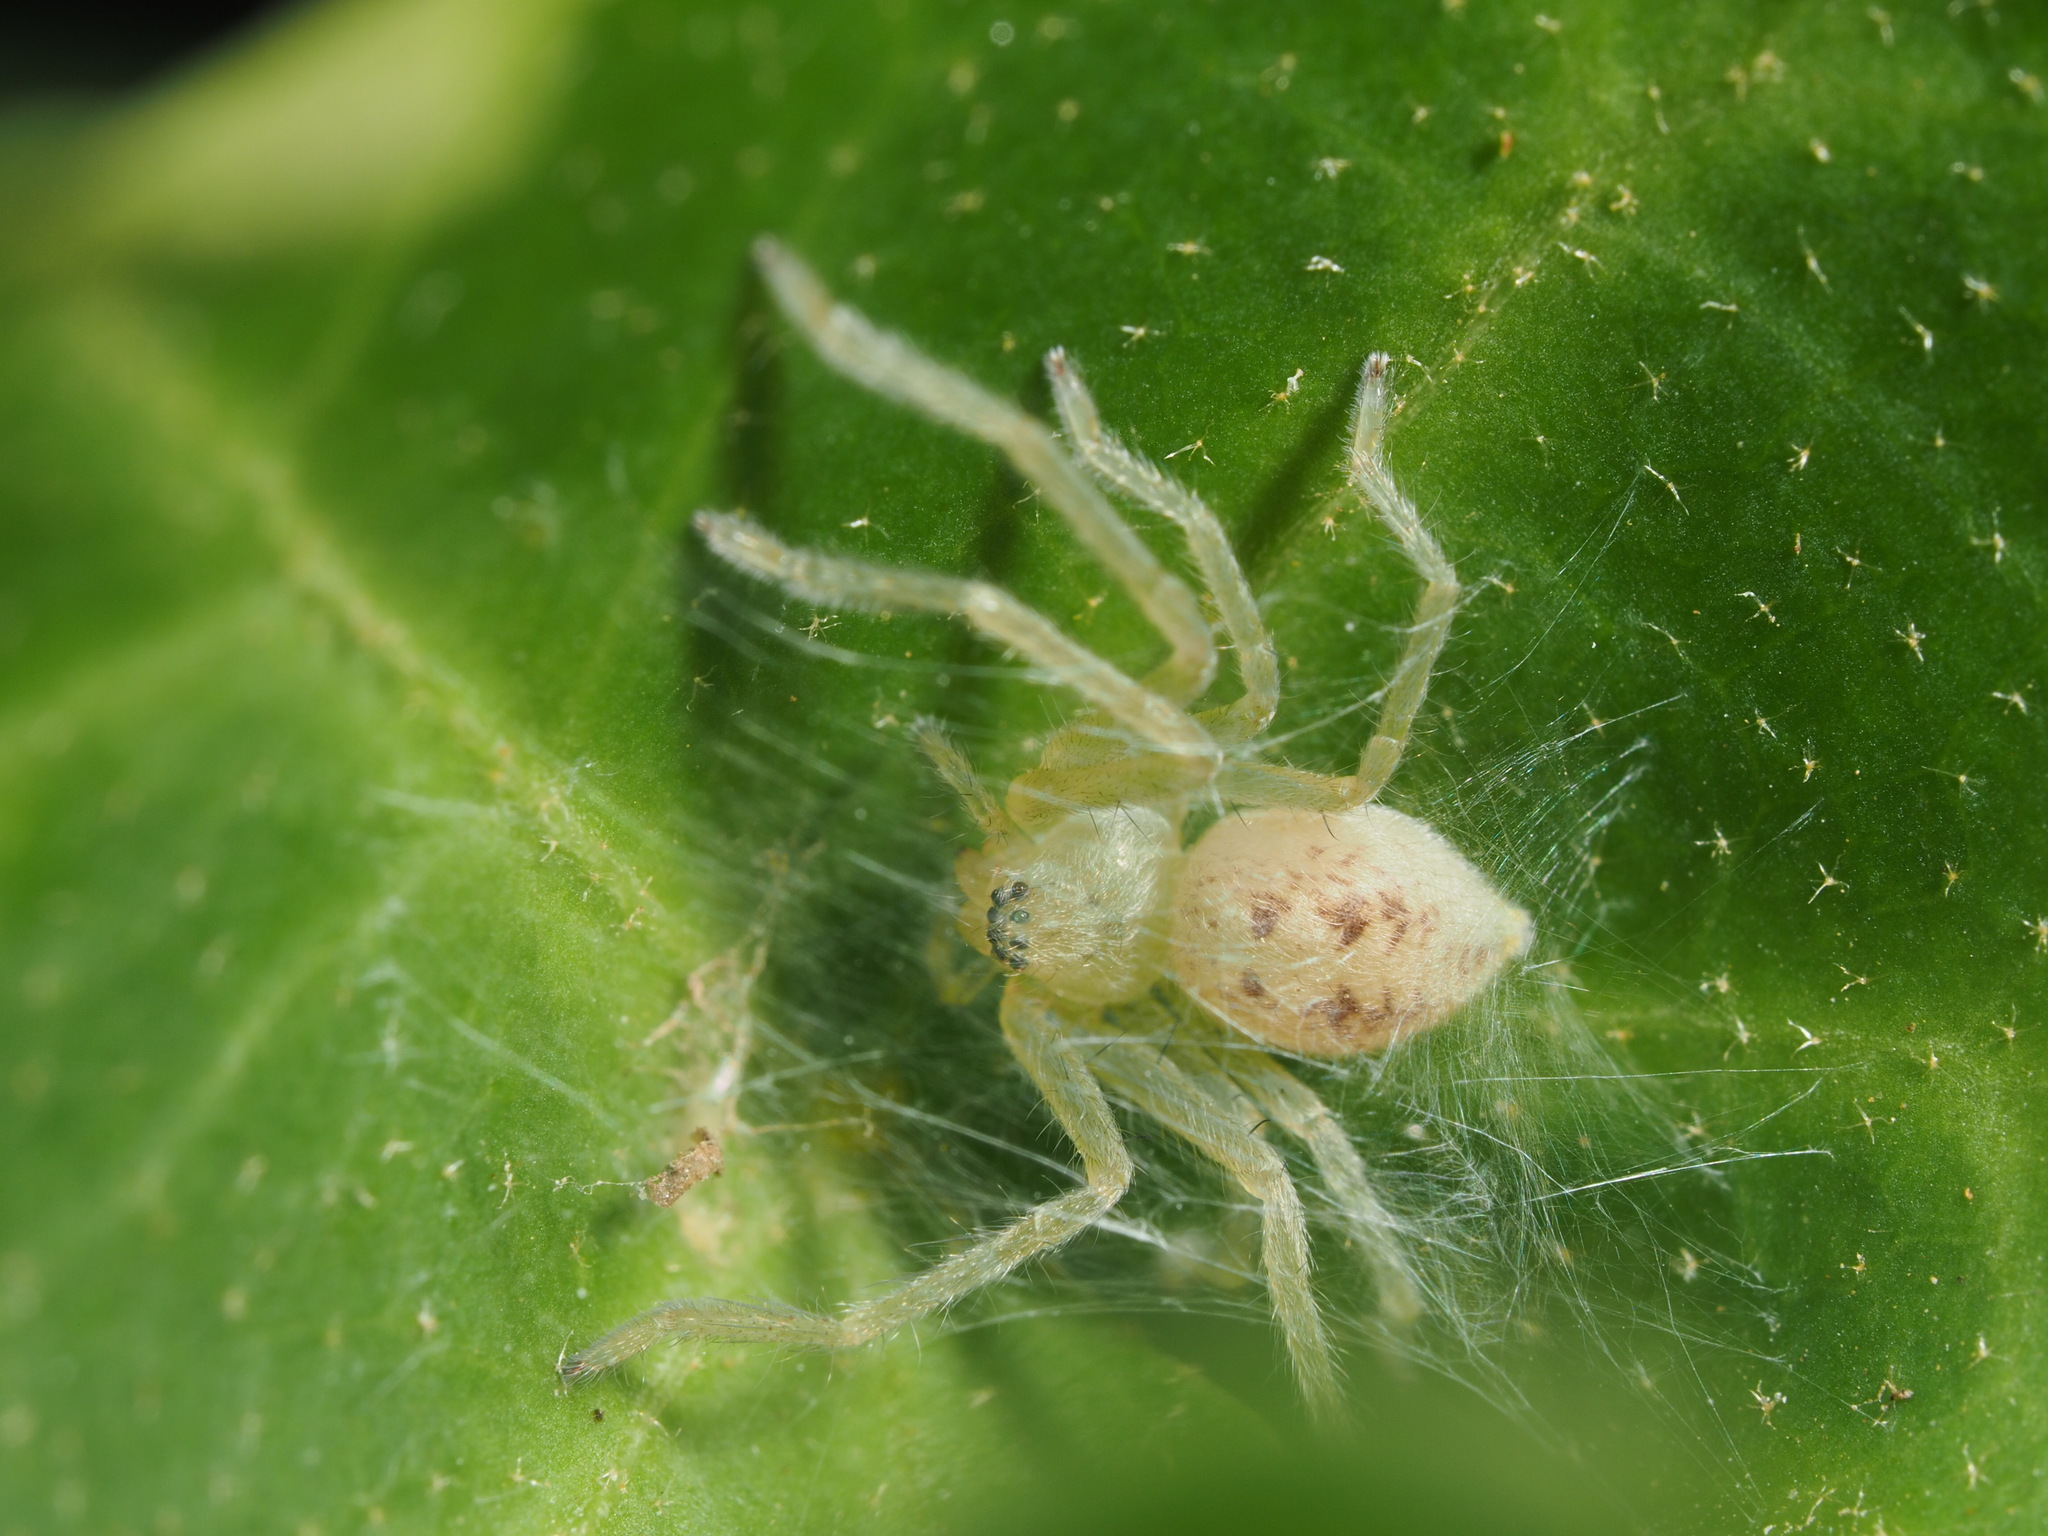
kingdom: Animalia
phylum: Arthropoda
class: Arachnida
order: Araneae
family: Sparassidae
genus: Olios
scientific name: Olios argelasius
